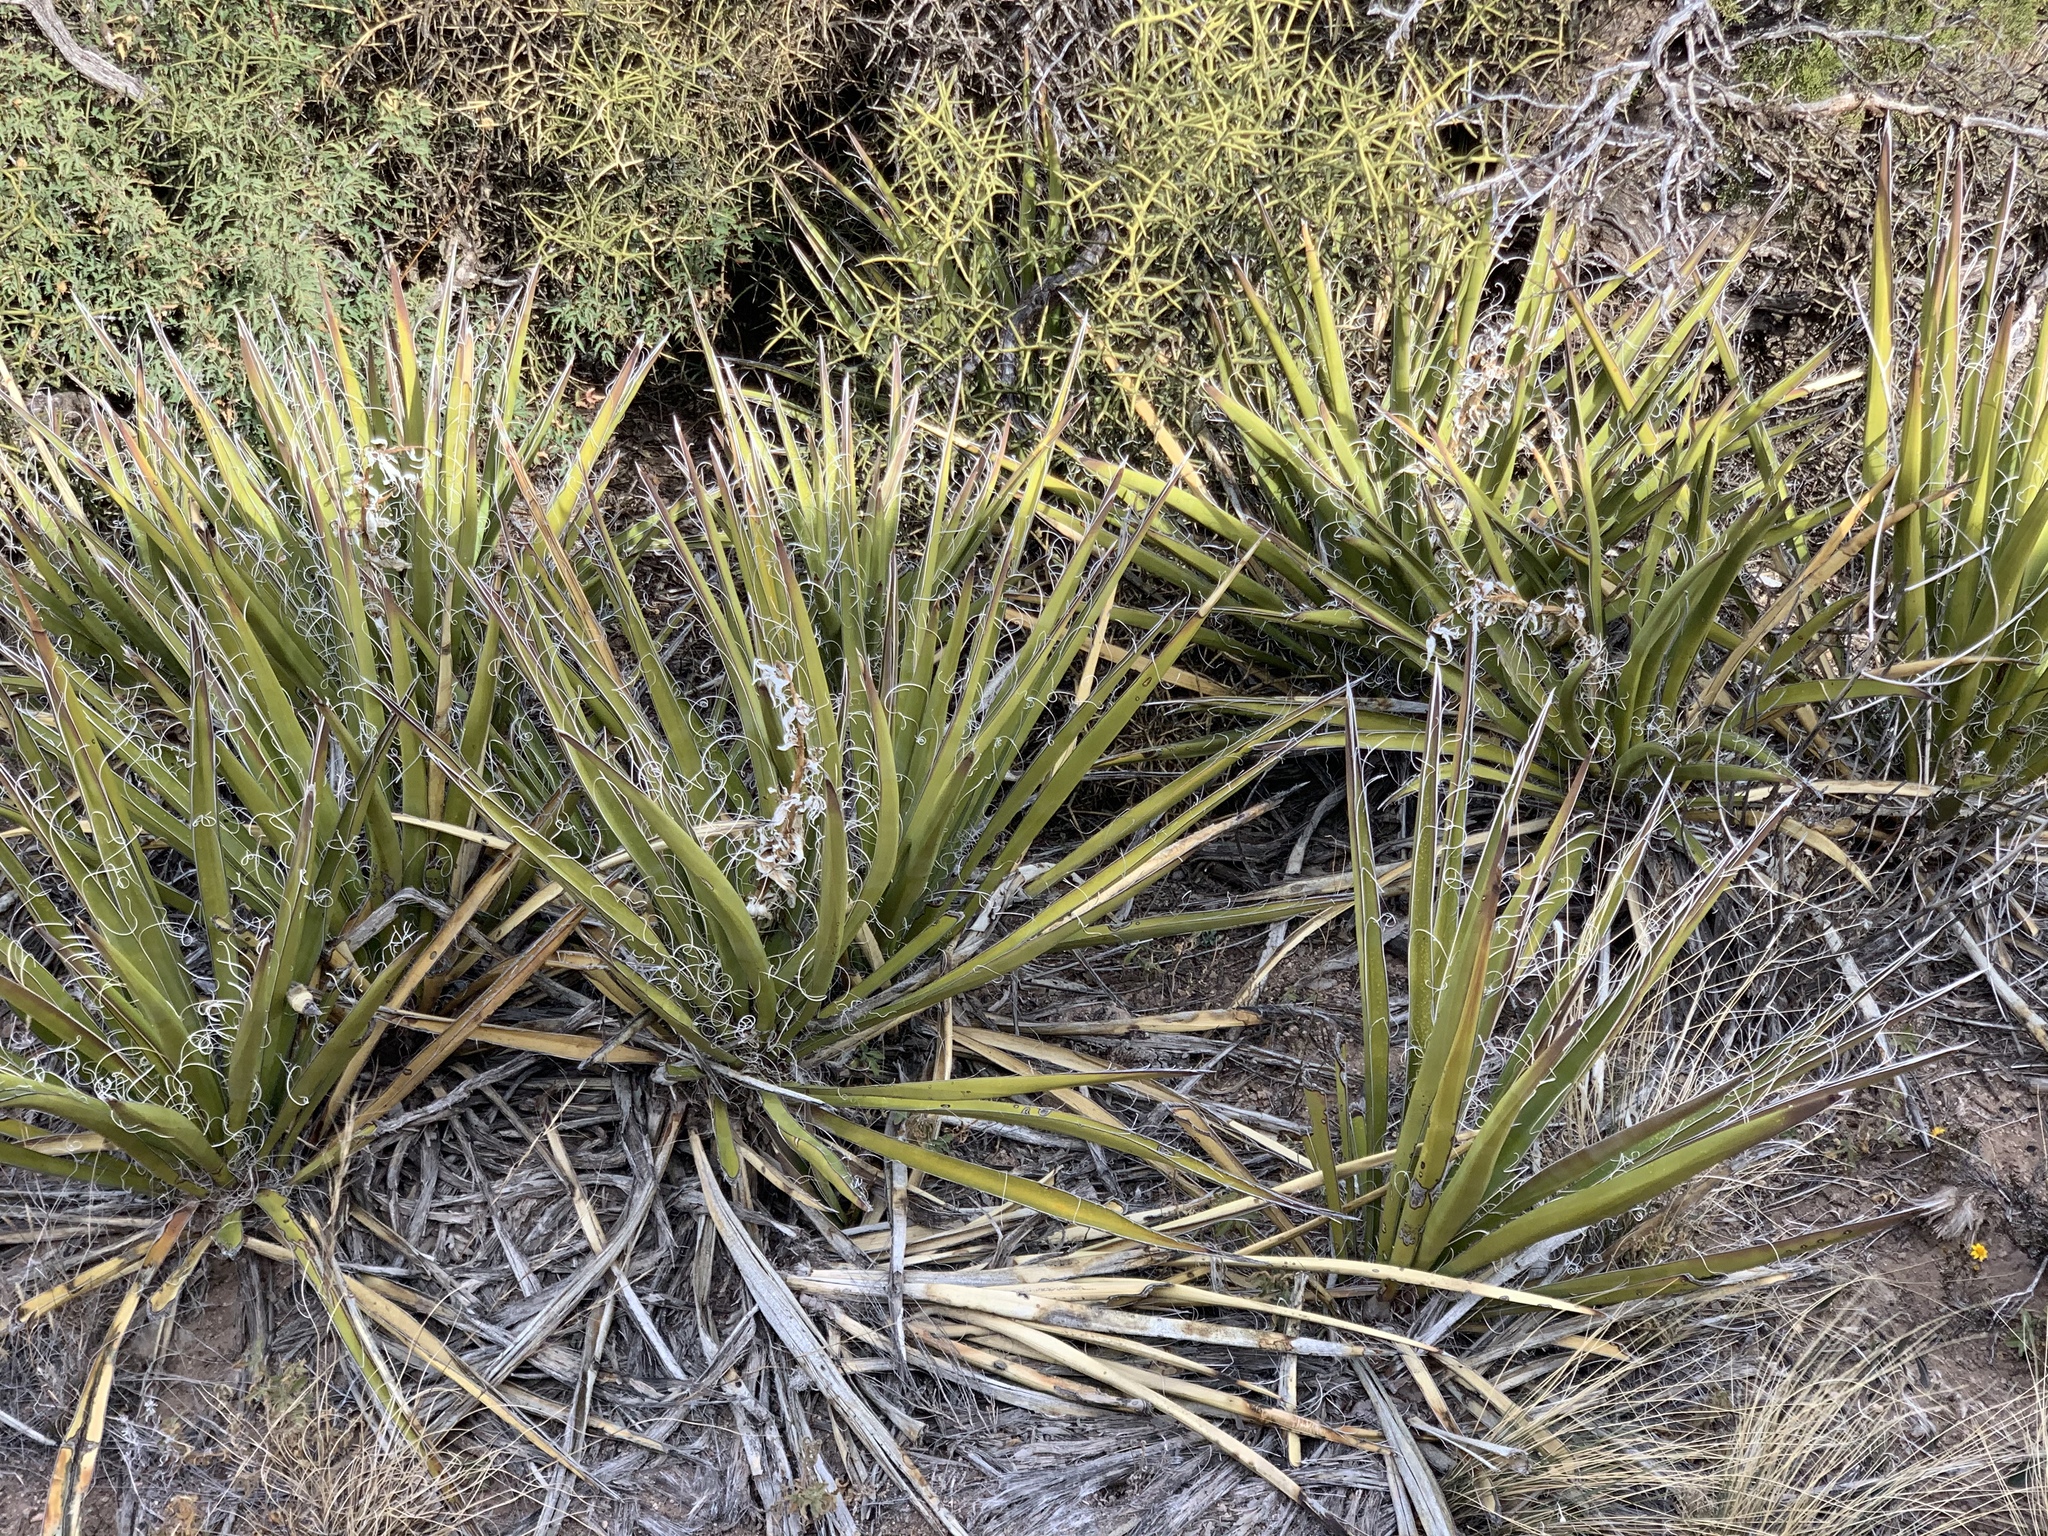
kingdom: Plantae
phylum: Tracheophyta
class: Liliopsida
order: Asparagales
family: Asparagaceae
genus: Yucca
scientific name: Yucca baccata
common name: Banana yucca
